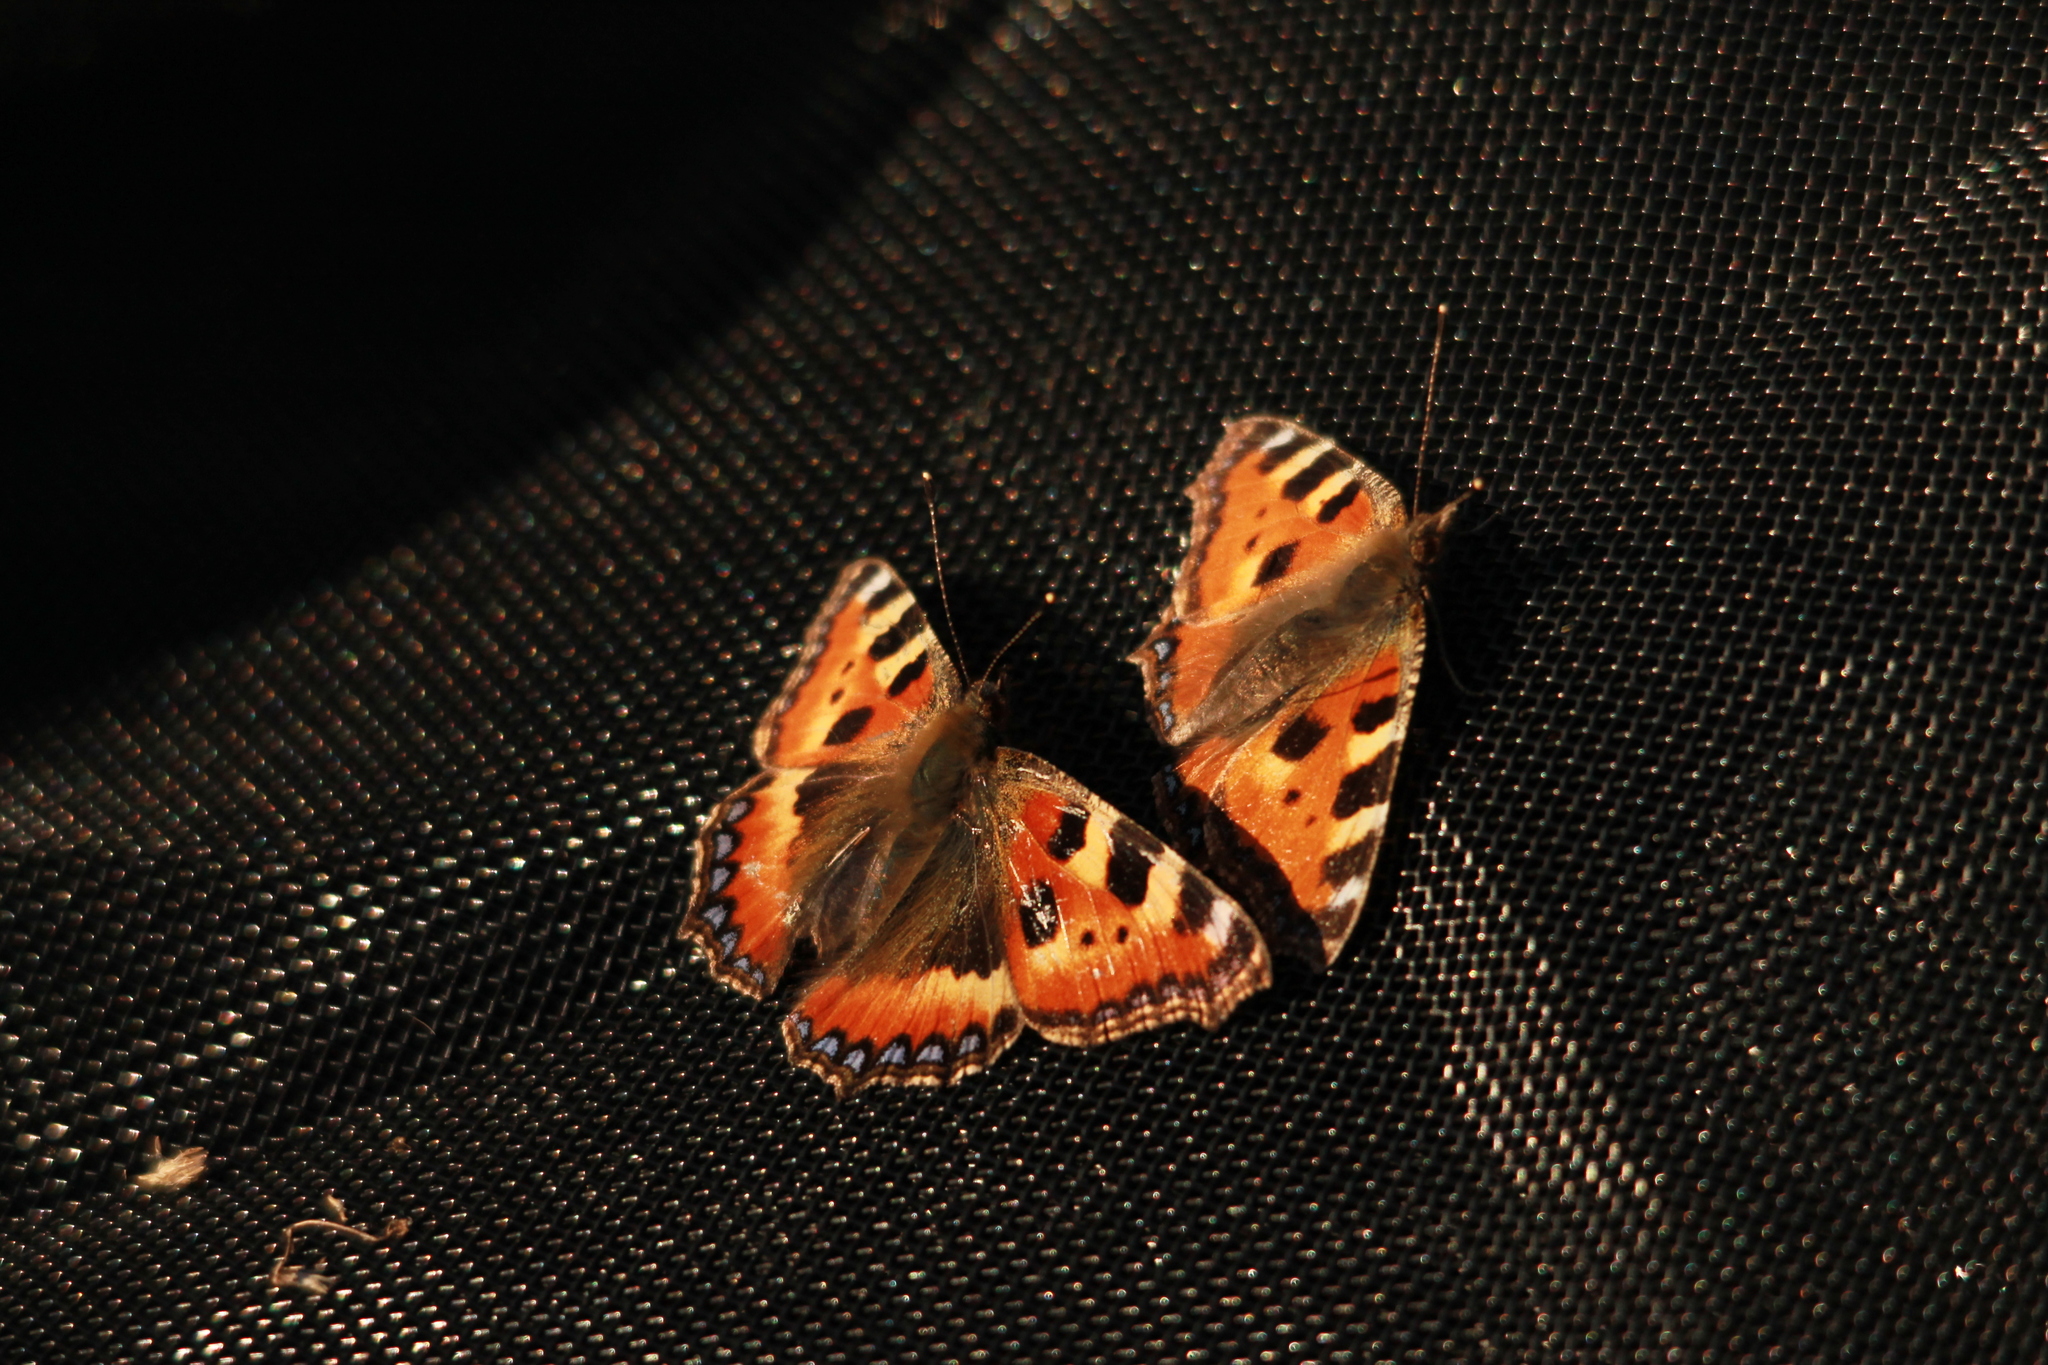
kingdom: Animalia
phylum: Arthropoda
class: Insecta
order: Lepidoptera
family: Nymphalidae
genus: Aglais
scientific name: Aglais urticae
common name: Small tortoiseshell
